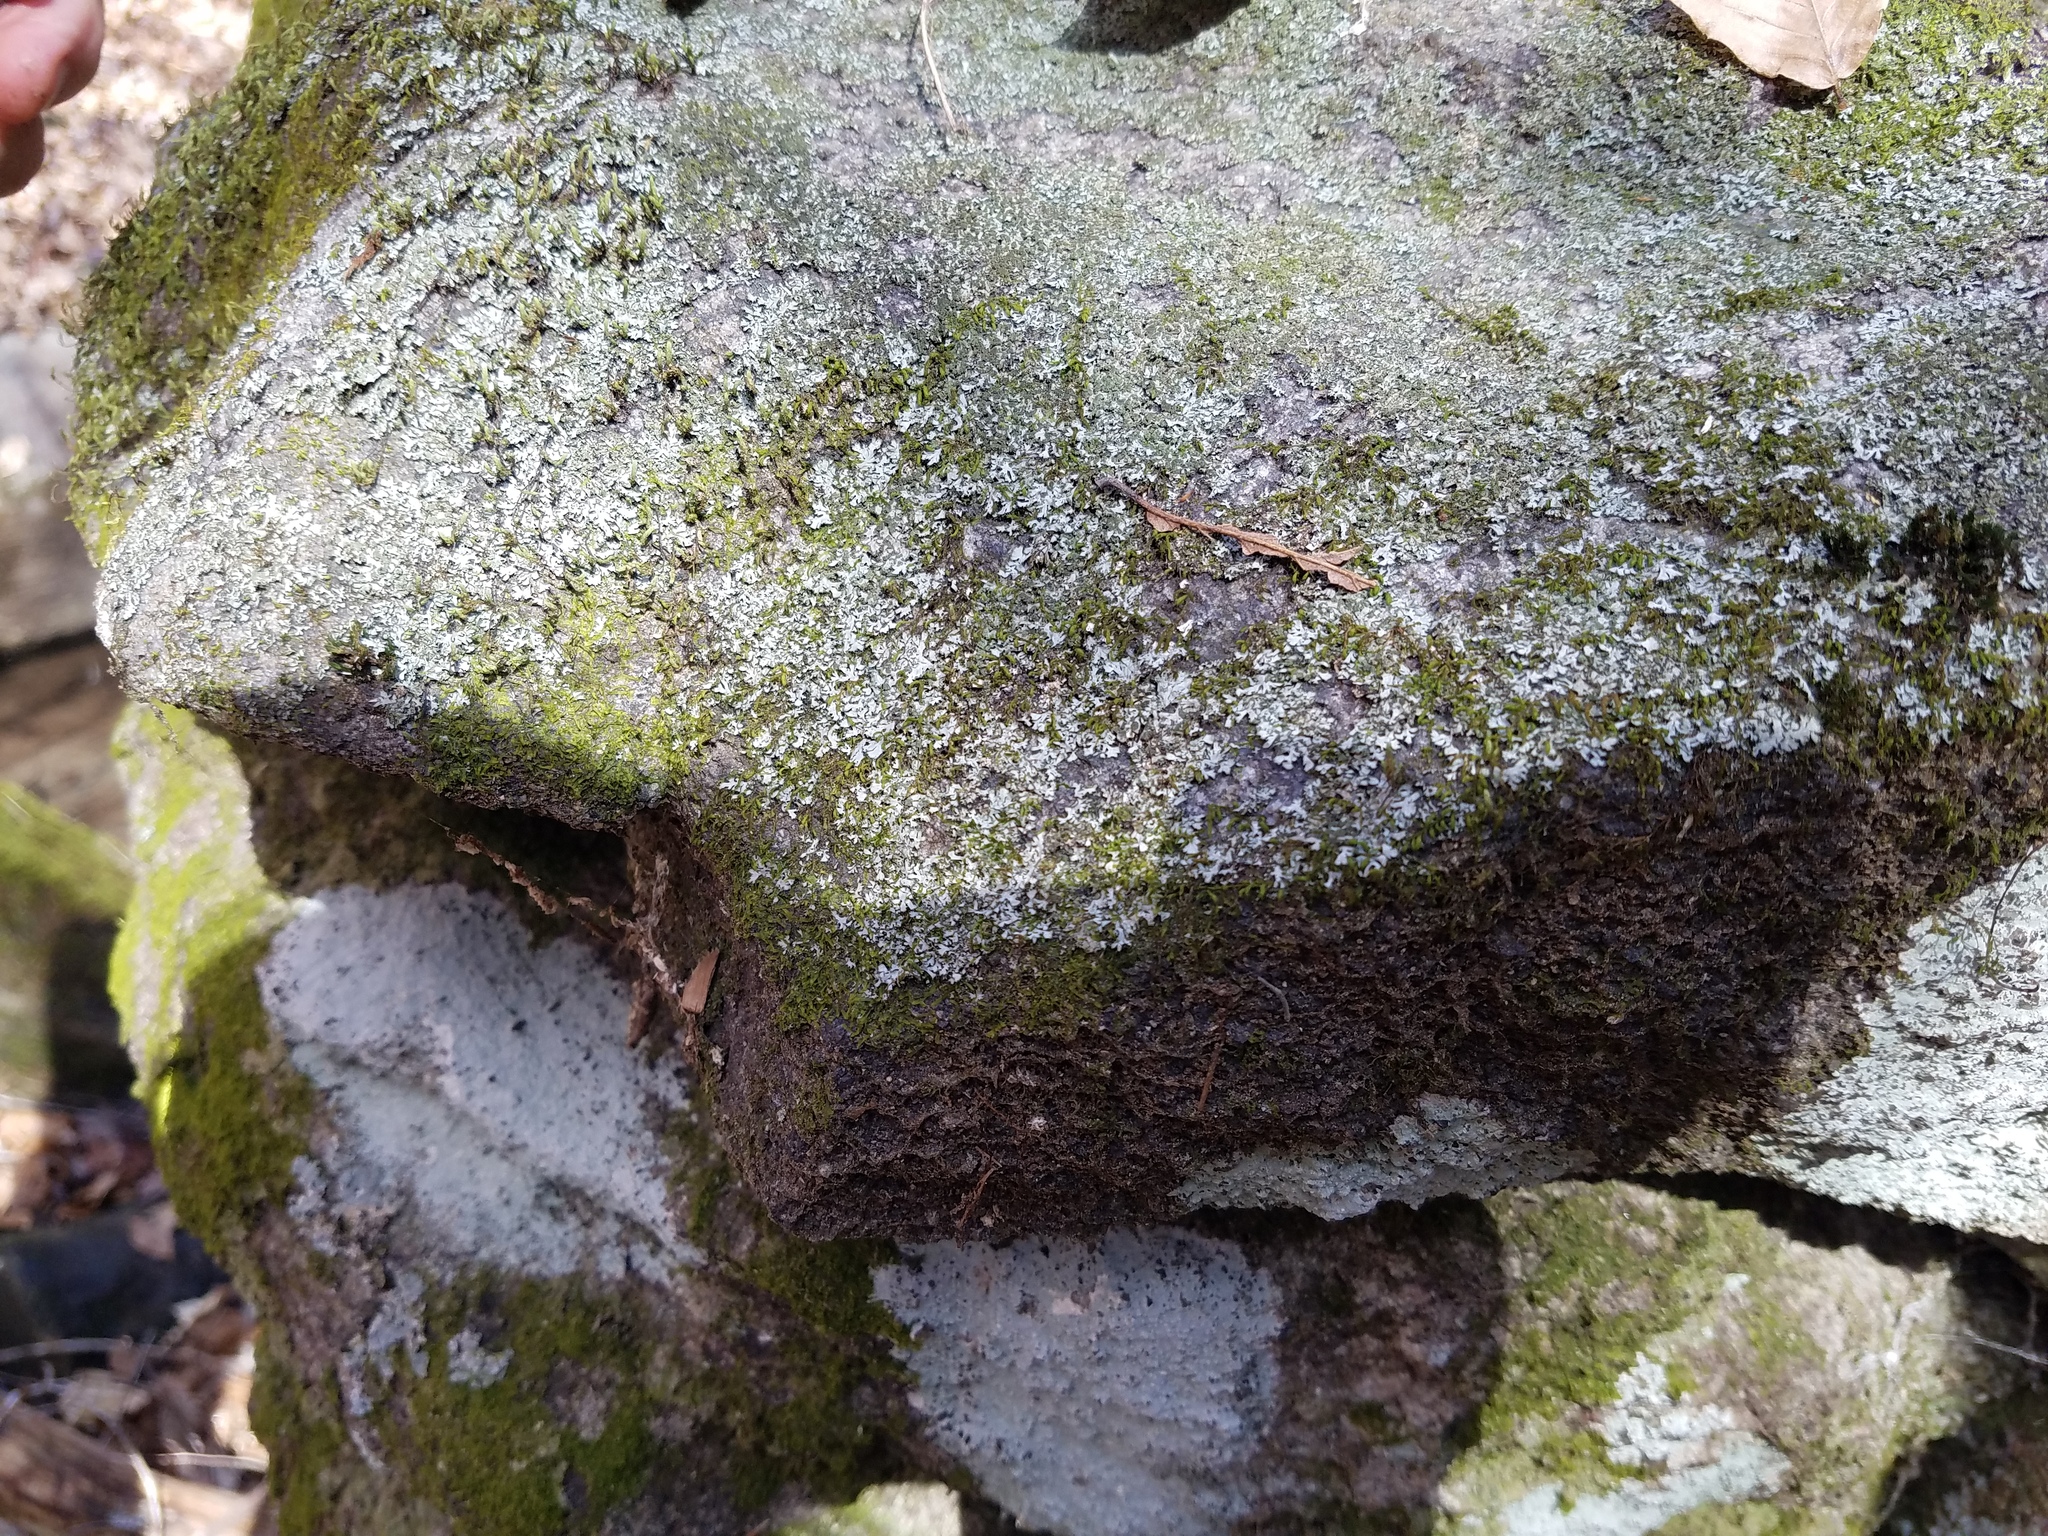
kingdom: Fungi
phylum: Ascomycota
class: Lecanoromycetes
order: Caliciales
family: Physciaceae
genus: Phaeophyscia
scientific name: Phaeophyscia adiastola
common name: Powder-tipped shadow lichen
